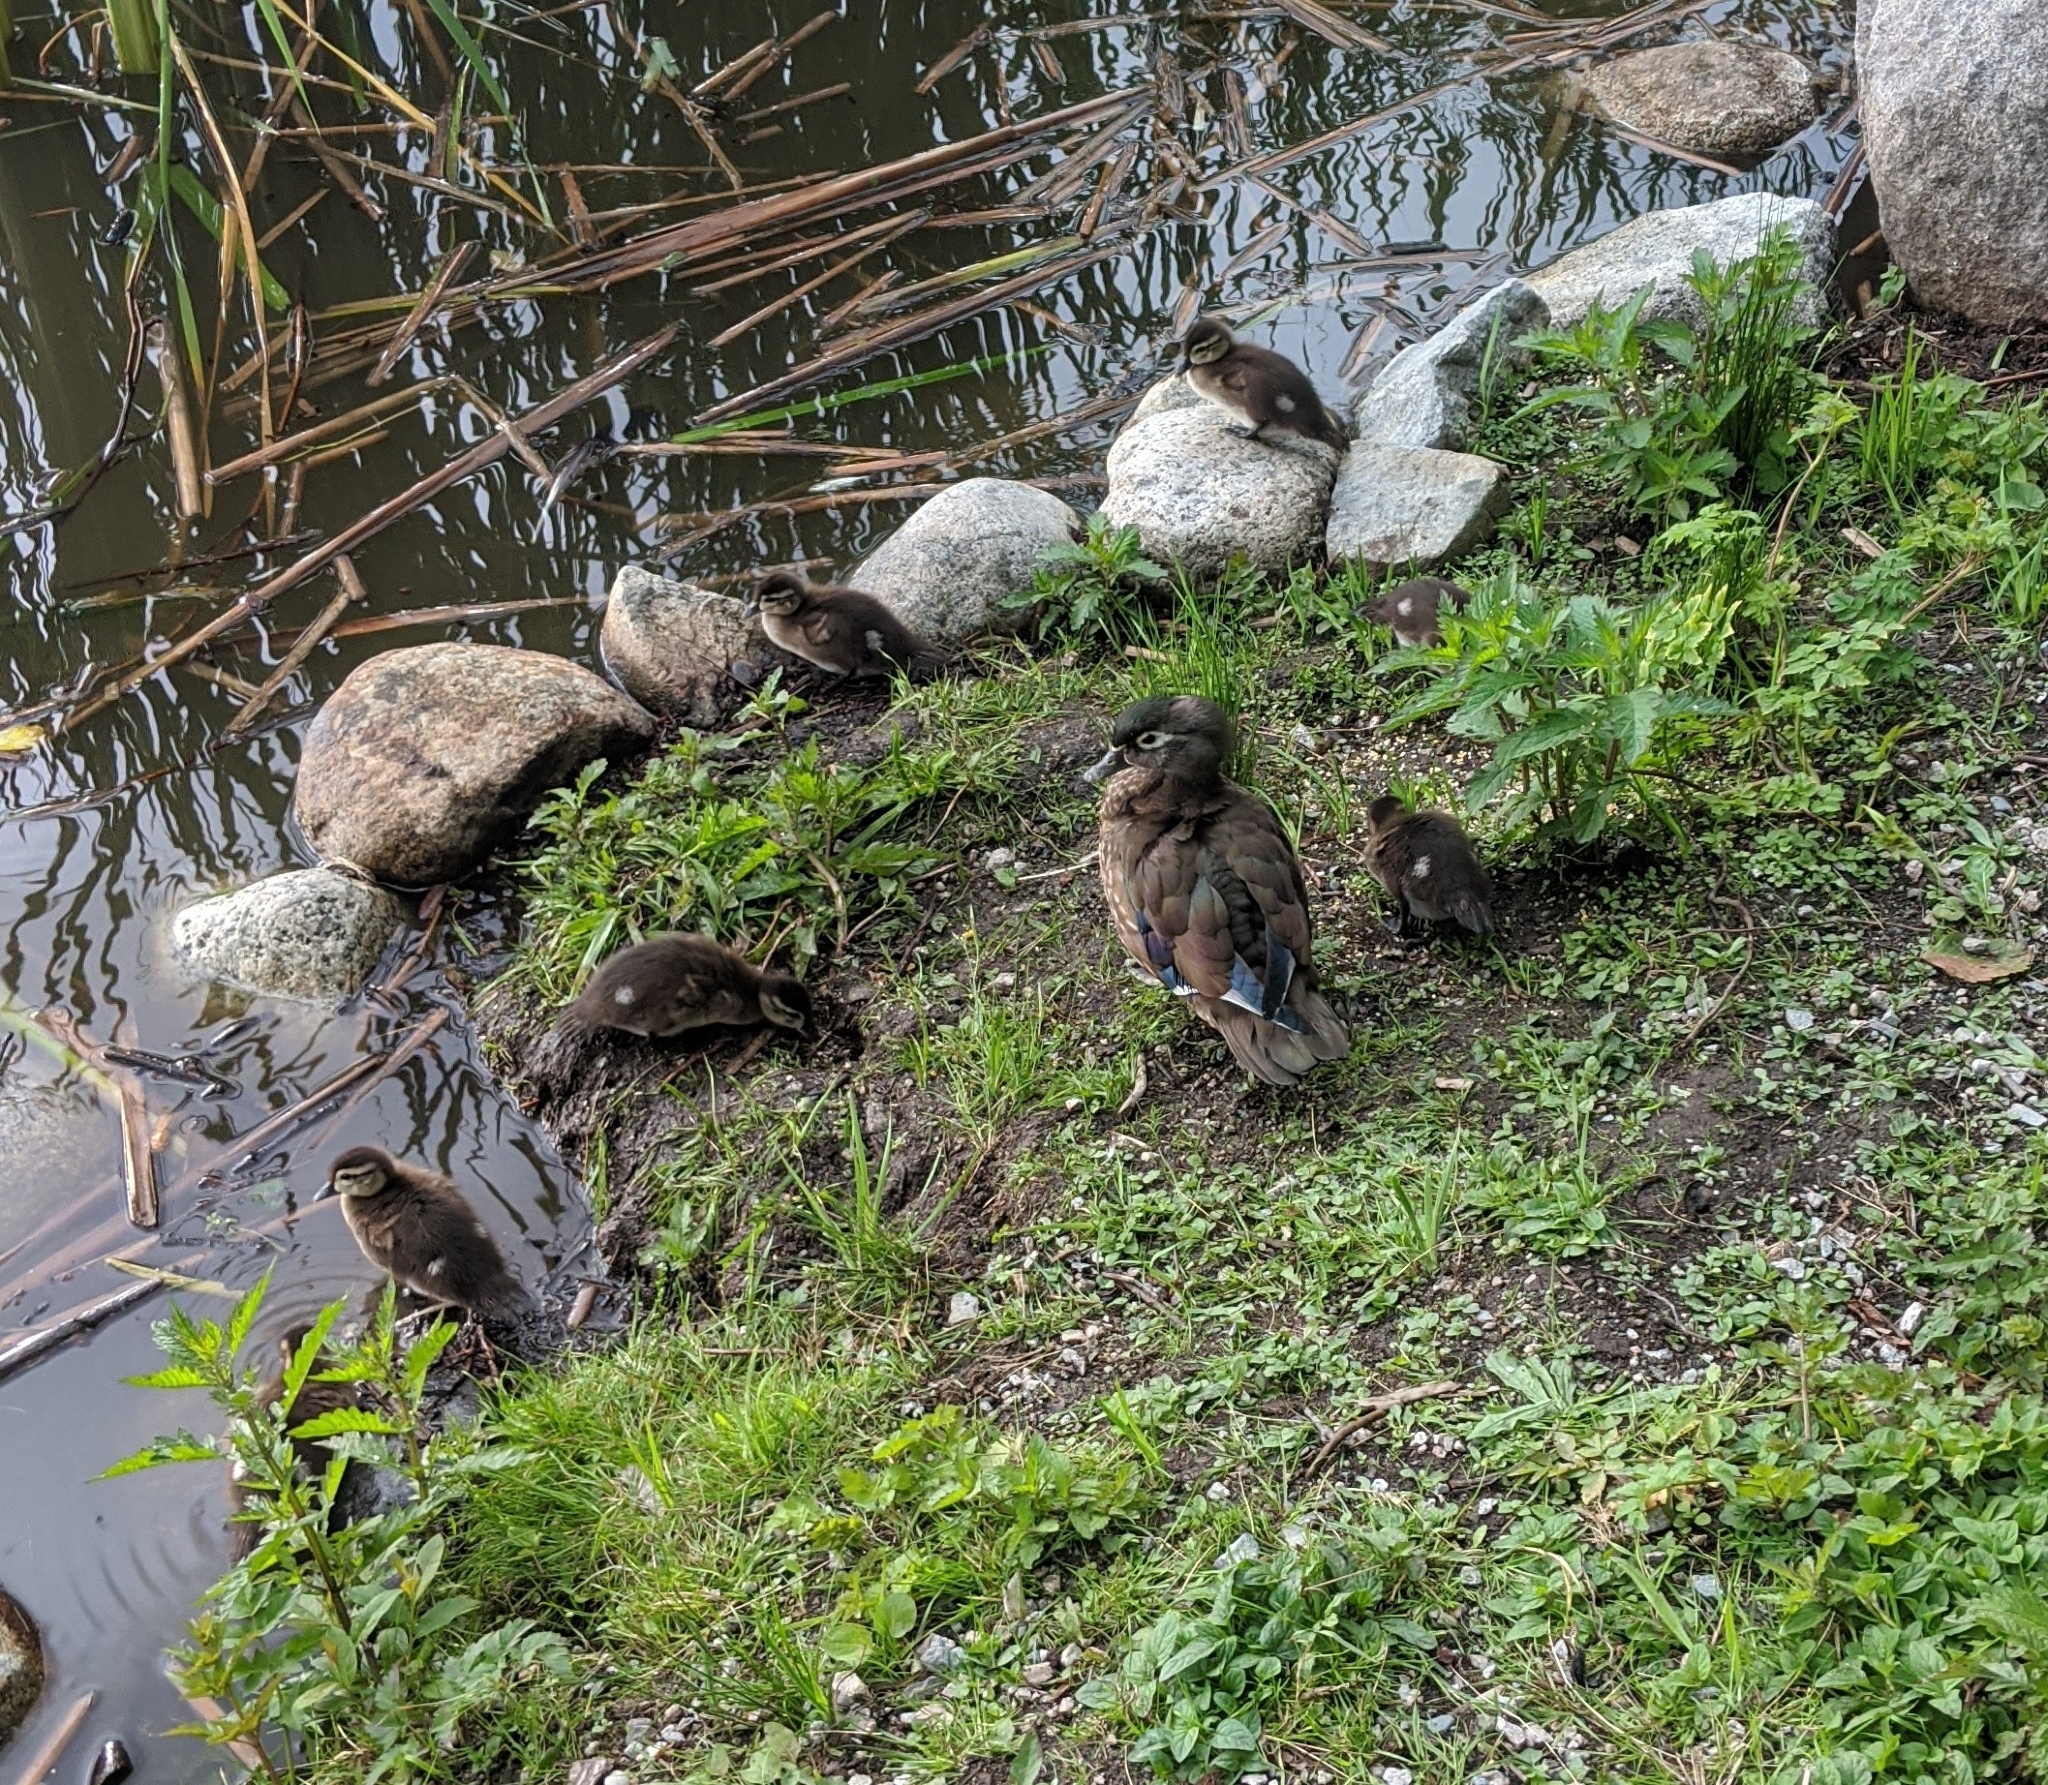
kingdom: Animalia
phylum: Chordata
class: Aves
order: Anseriformes
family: Anatidae
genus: Aix
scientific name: Aix sponsa
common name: Wood duck
